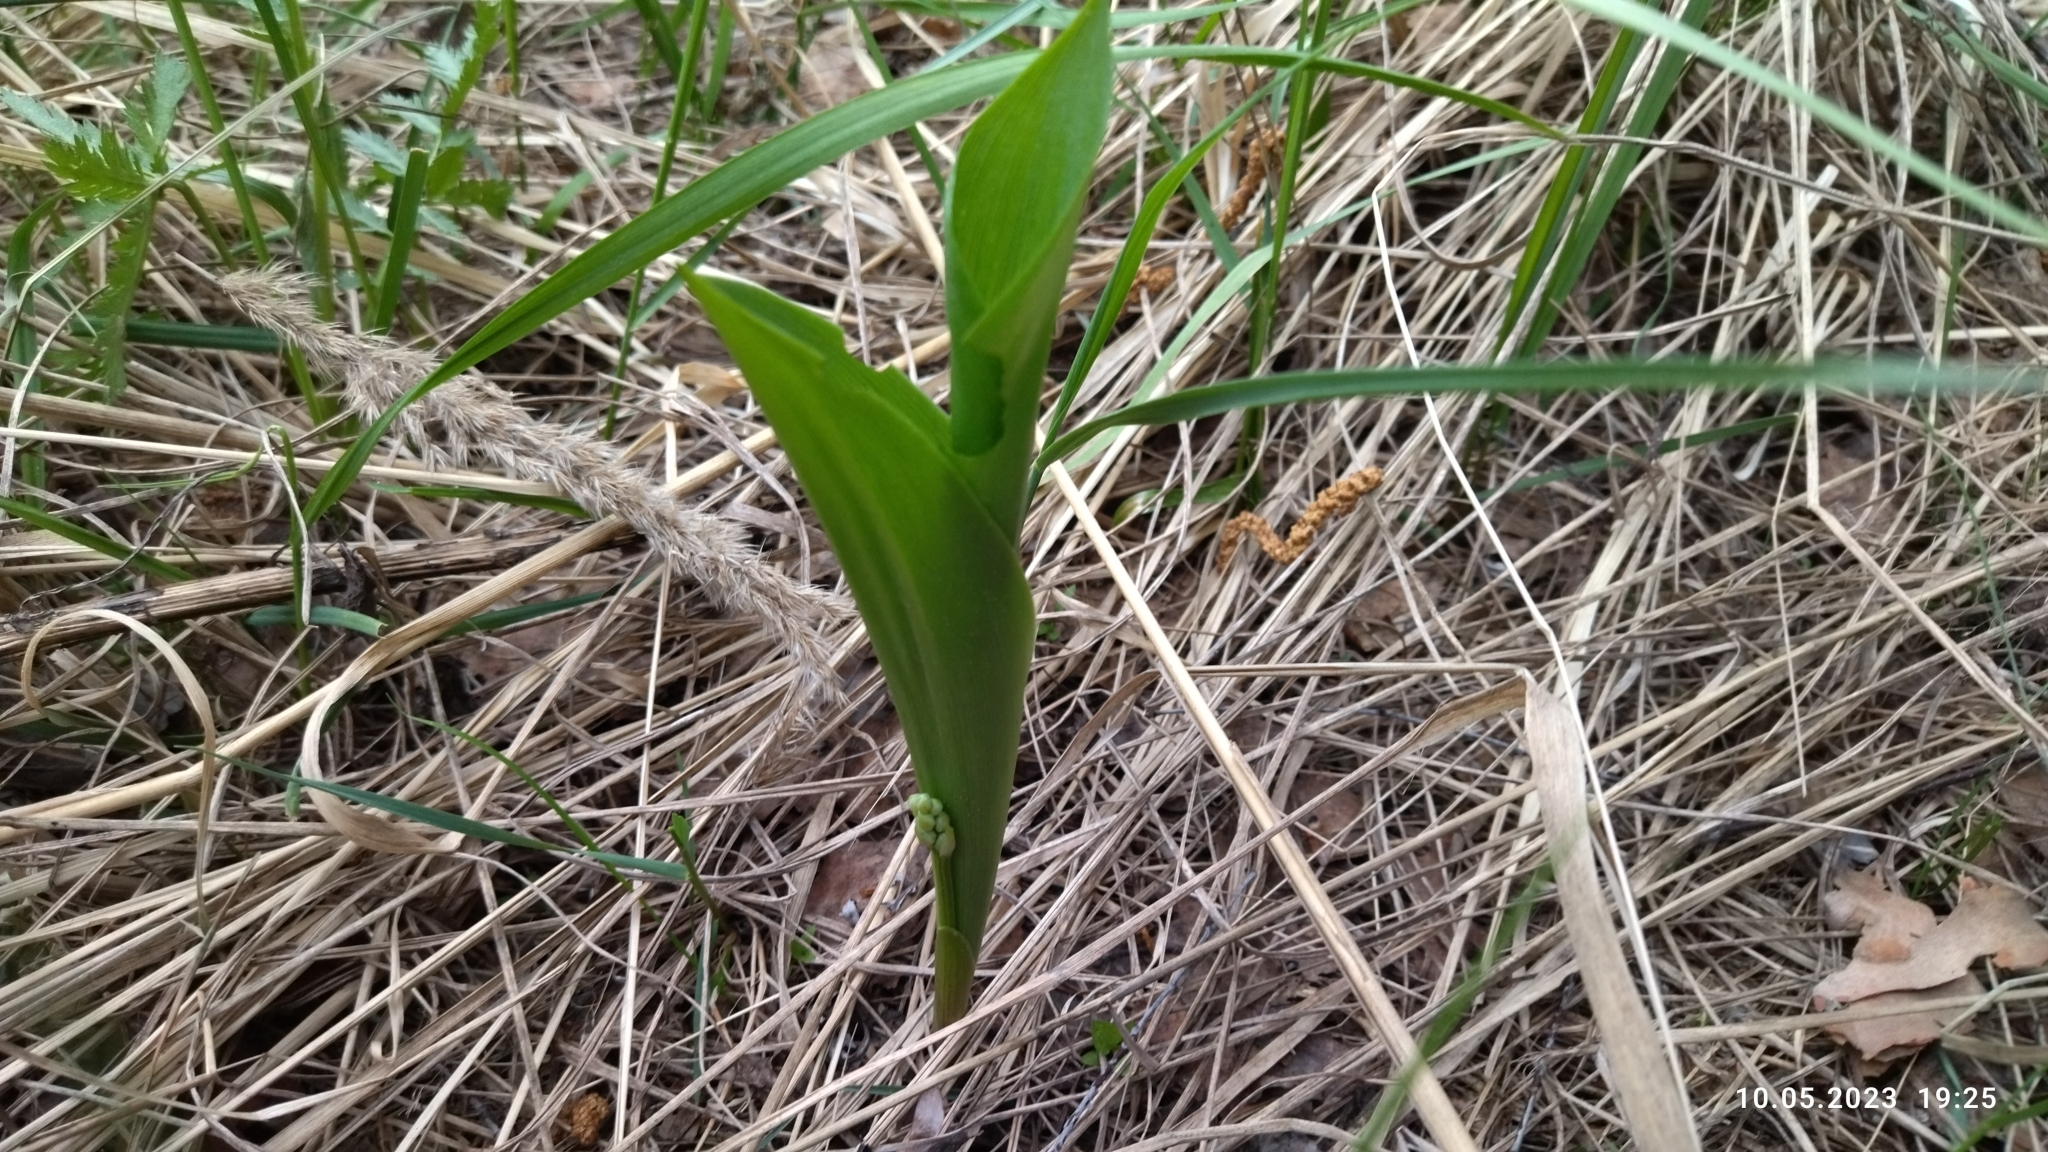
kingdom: Plantae
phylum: Tracheophyta
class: Liliopsida
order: Asparagales
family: Asparagaceae
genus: Convallaria
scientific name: Convallaria majalis
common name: Lily-of-the-valley
